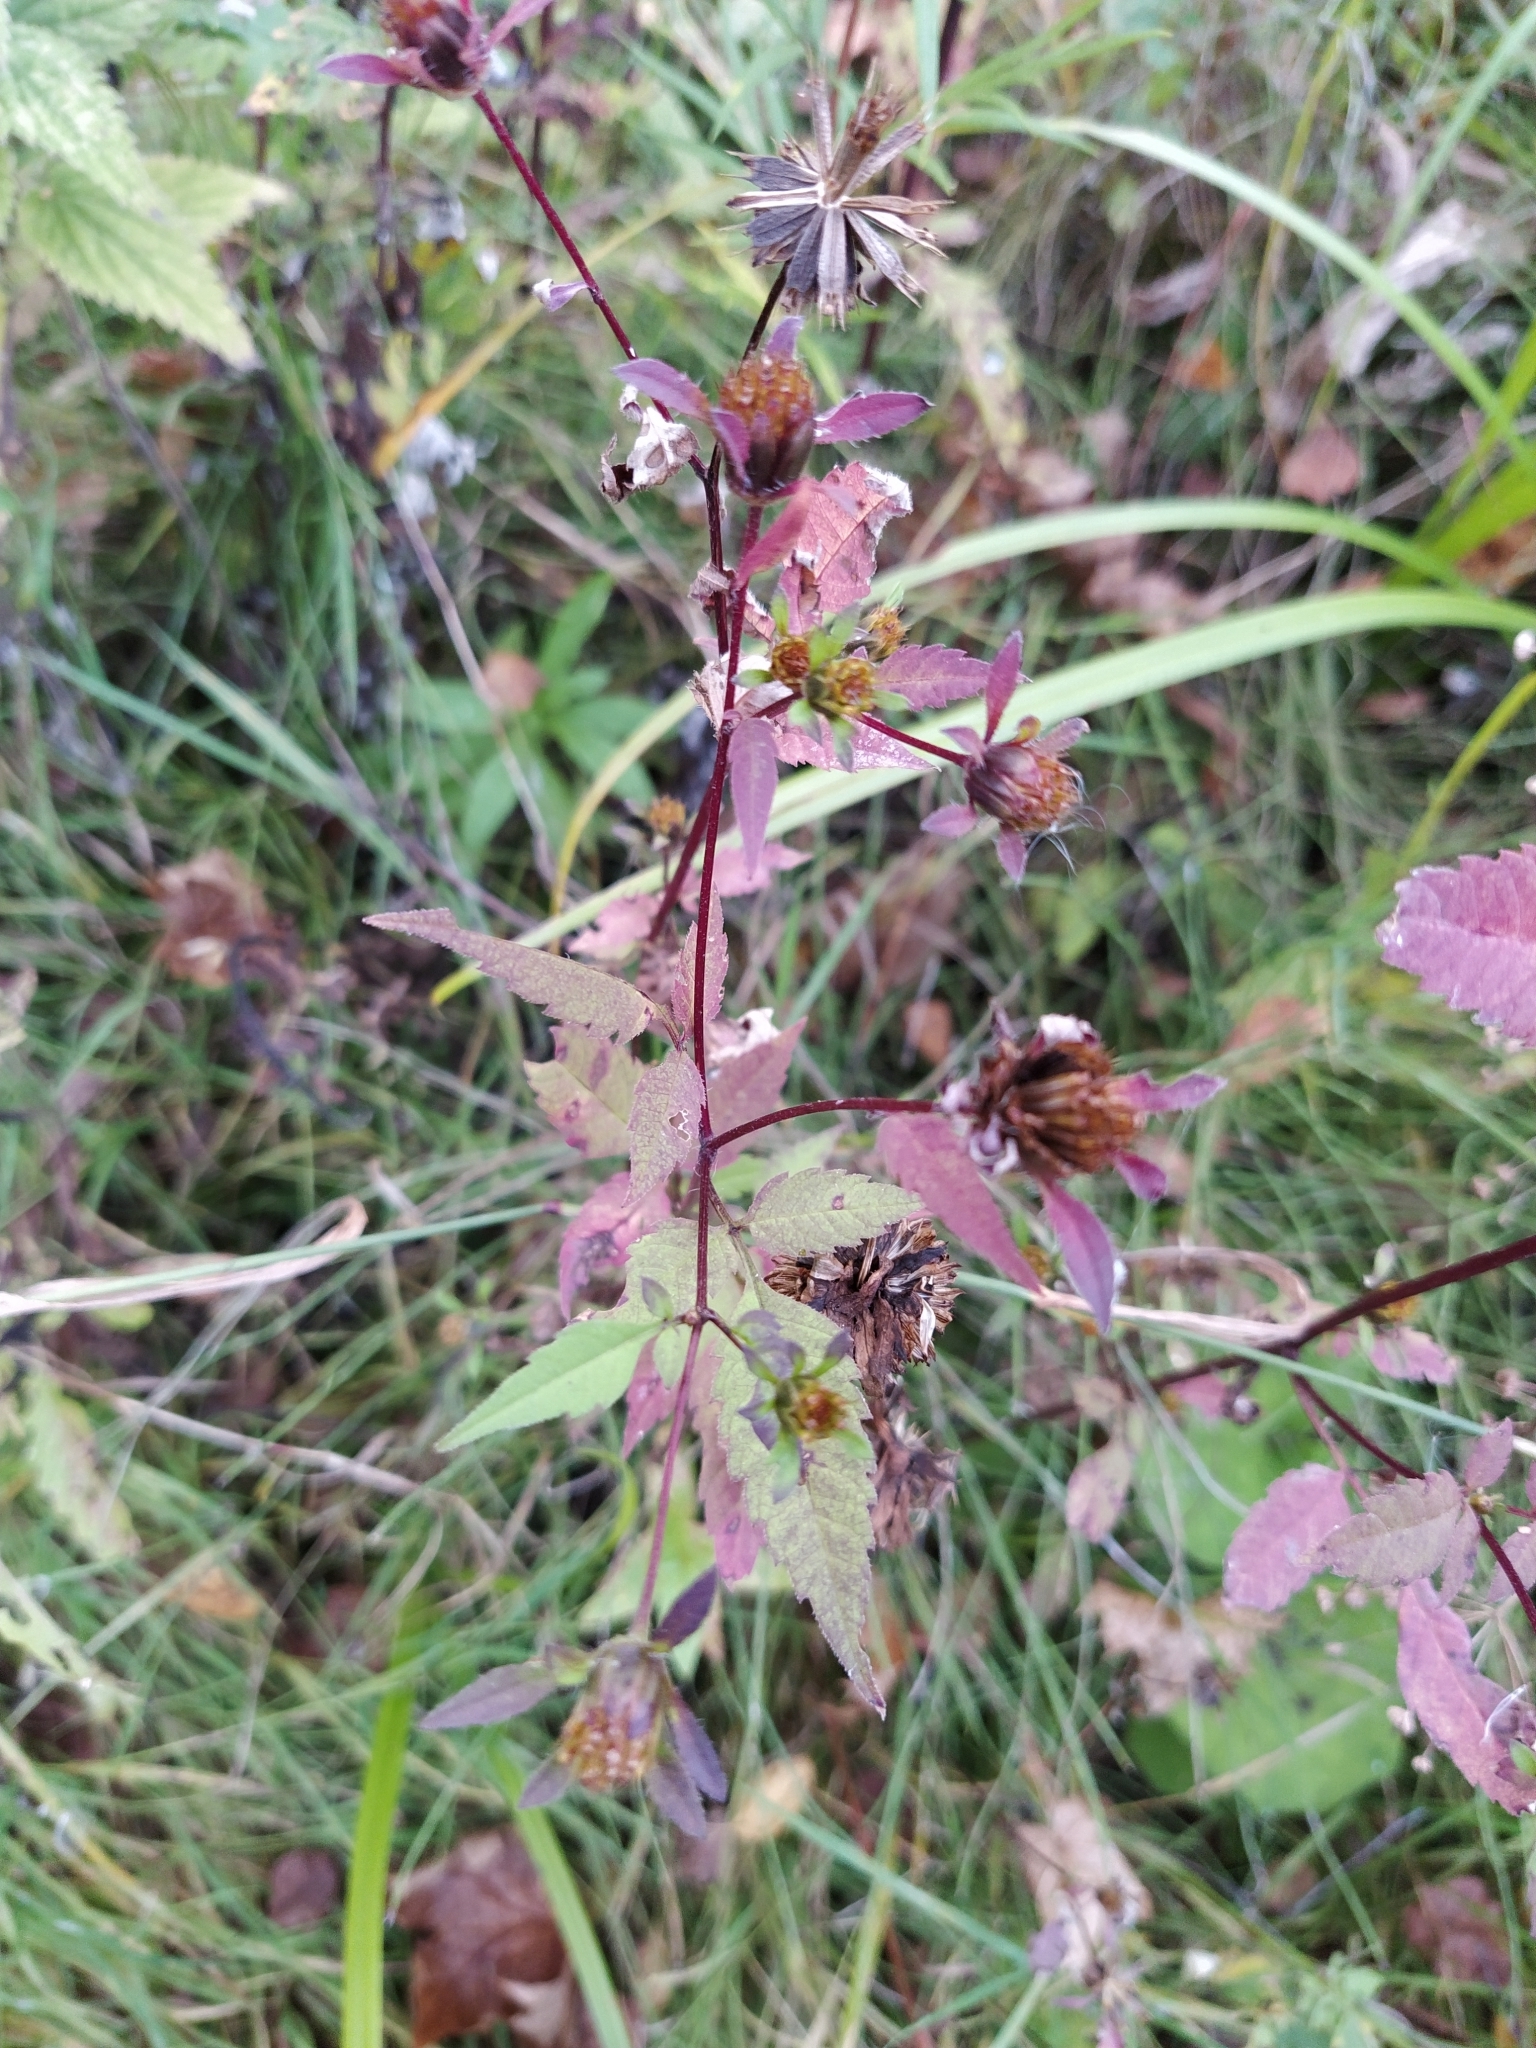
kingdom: Plantae
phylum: Tracheophyta
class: Magnoliopsida
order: Asterales
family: Asteraceae
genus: Bidens
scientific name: Bidens frondosa
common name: Beggarticks
